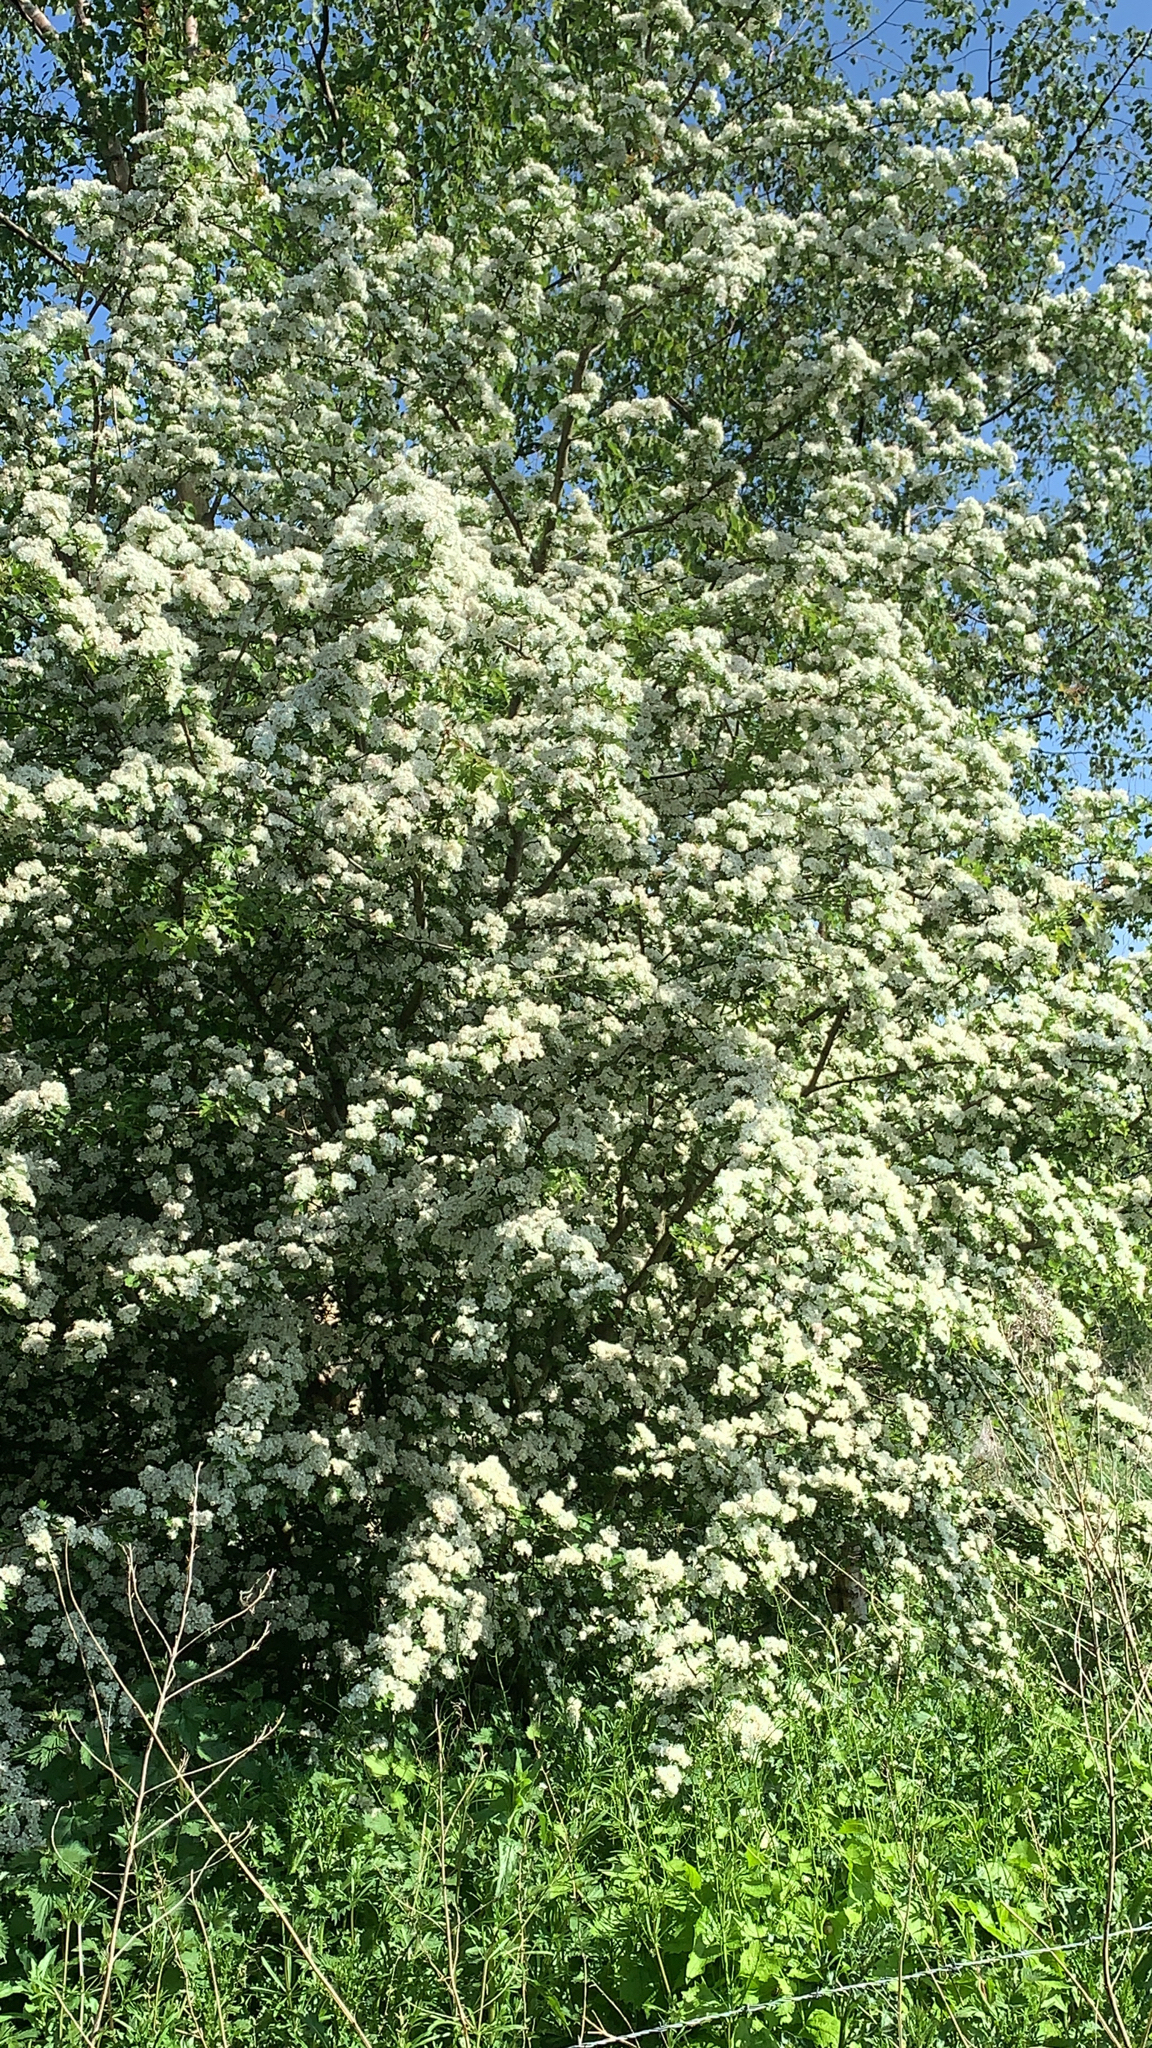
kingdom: Plantae
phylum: Tracheophyta
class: Magnoliopsida
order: Rosales
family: Rosaceae
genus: Crataegus
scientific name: Crataegus monogyna
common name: Hawthorn
